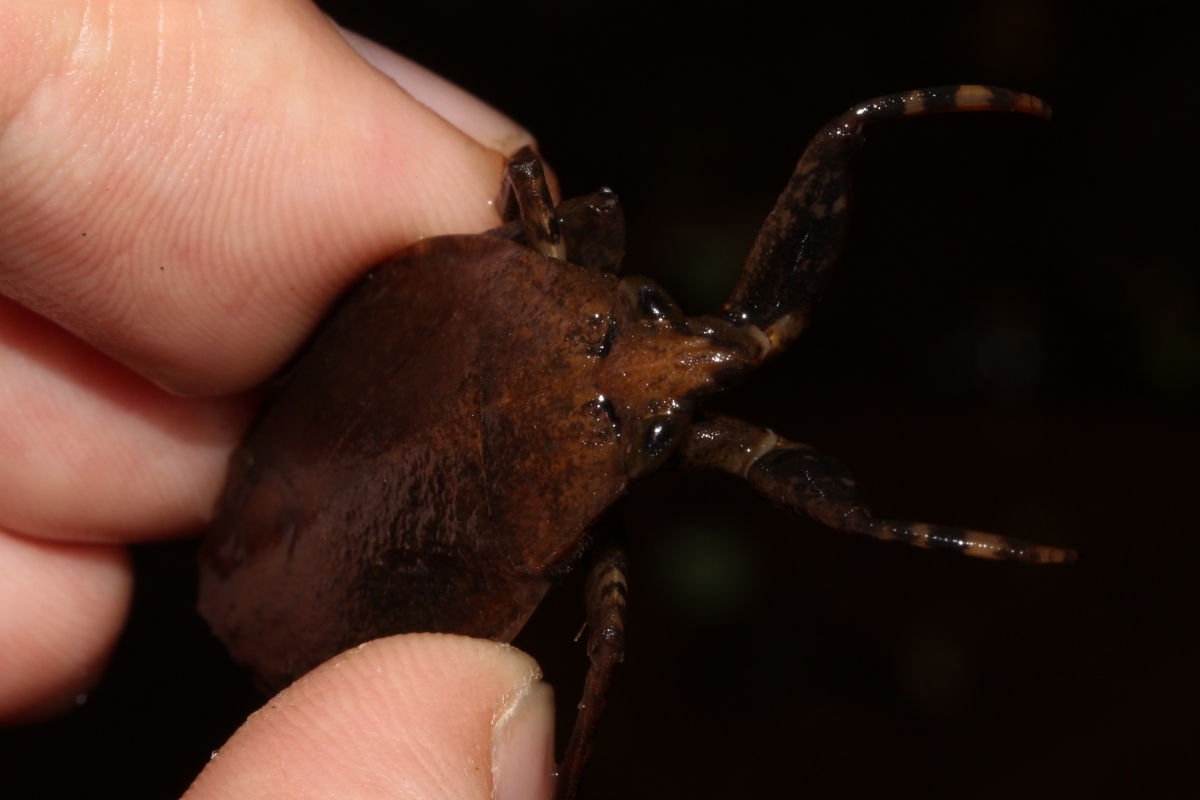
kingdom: Animalia
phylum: Arthropoda
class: Insecta
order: Hemiptera
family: Belostomatidae
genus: Belostoma
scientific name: Belostoma
